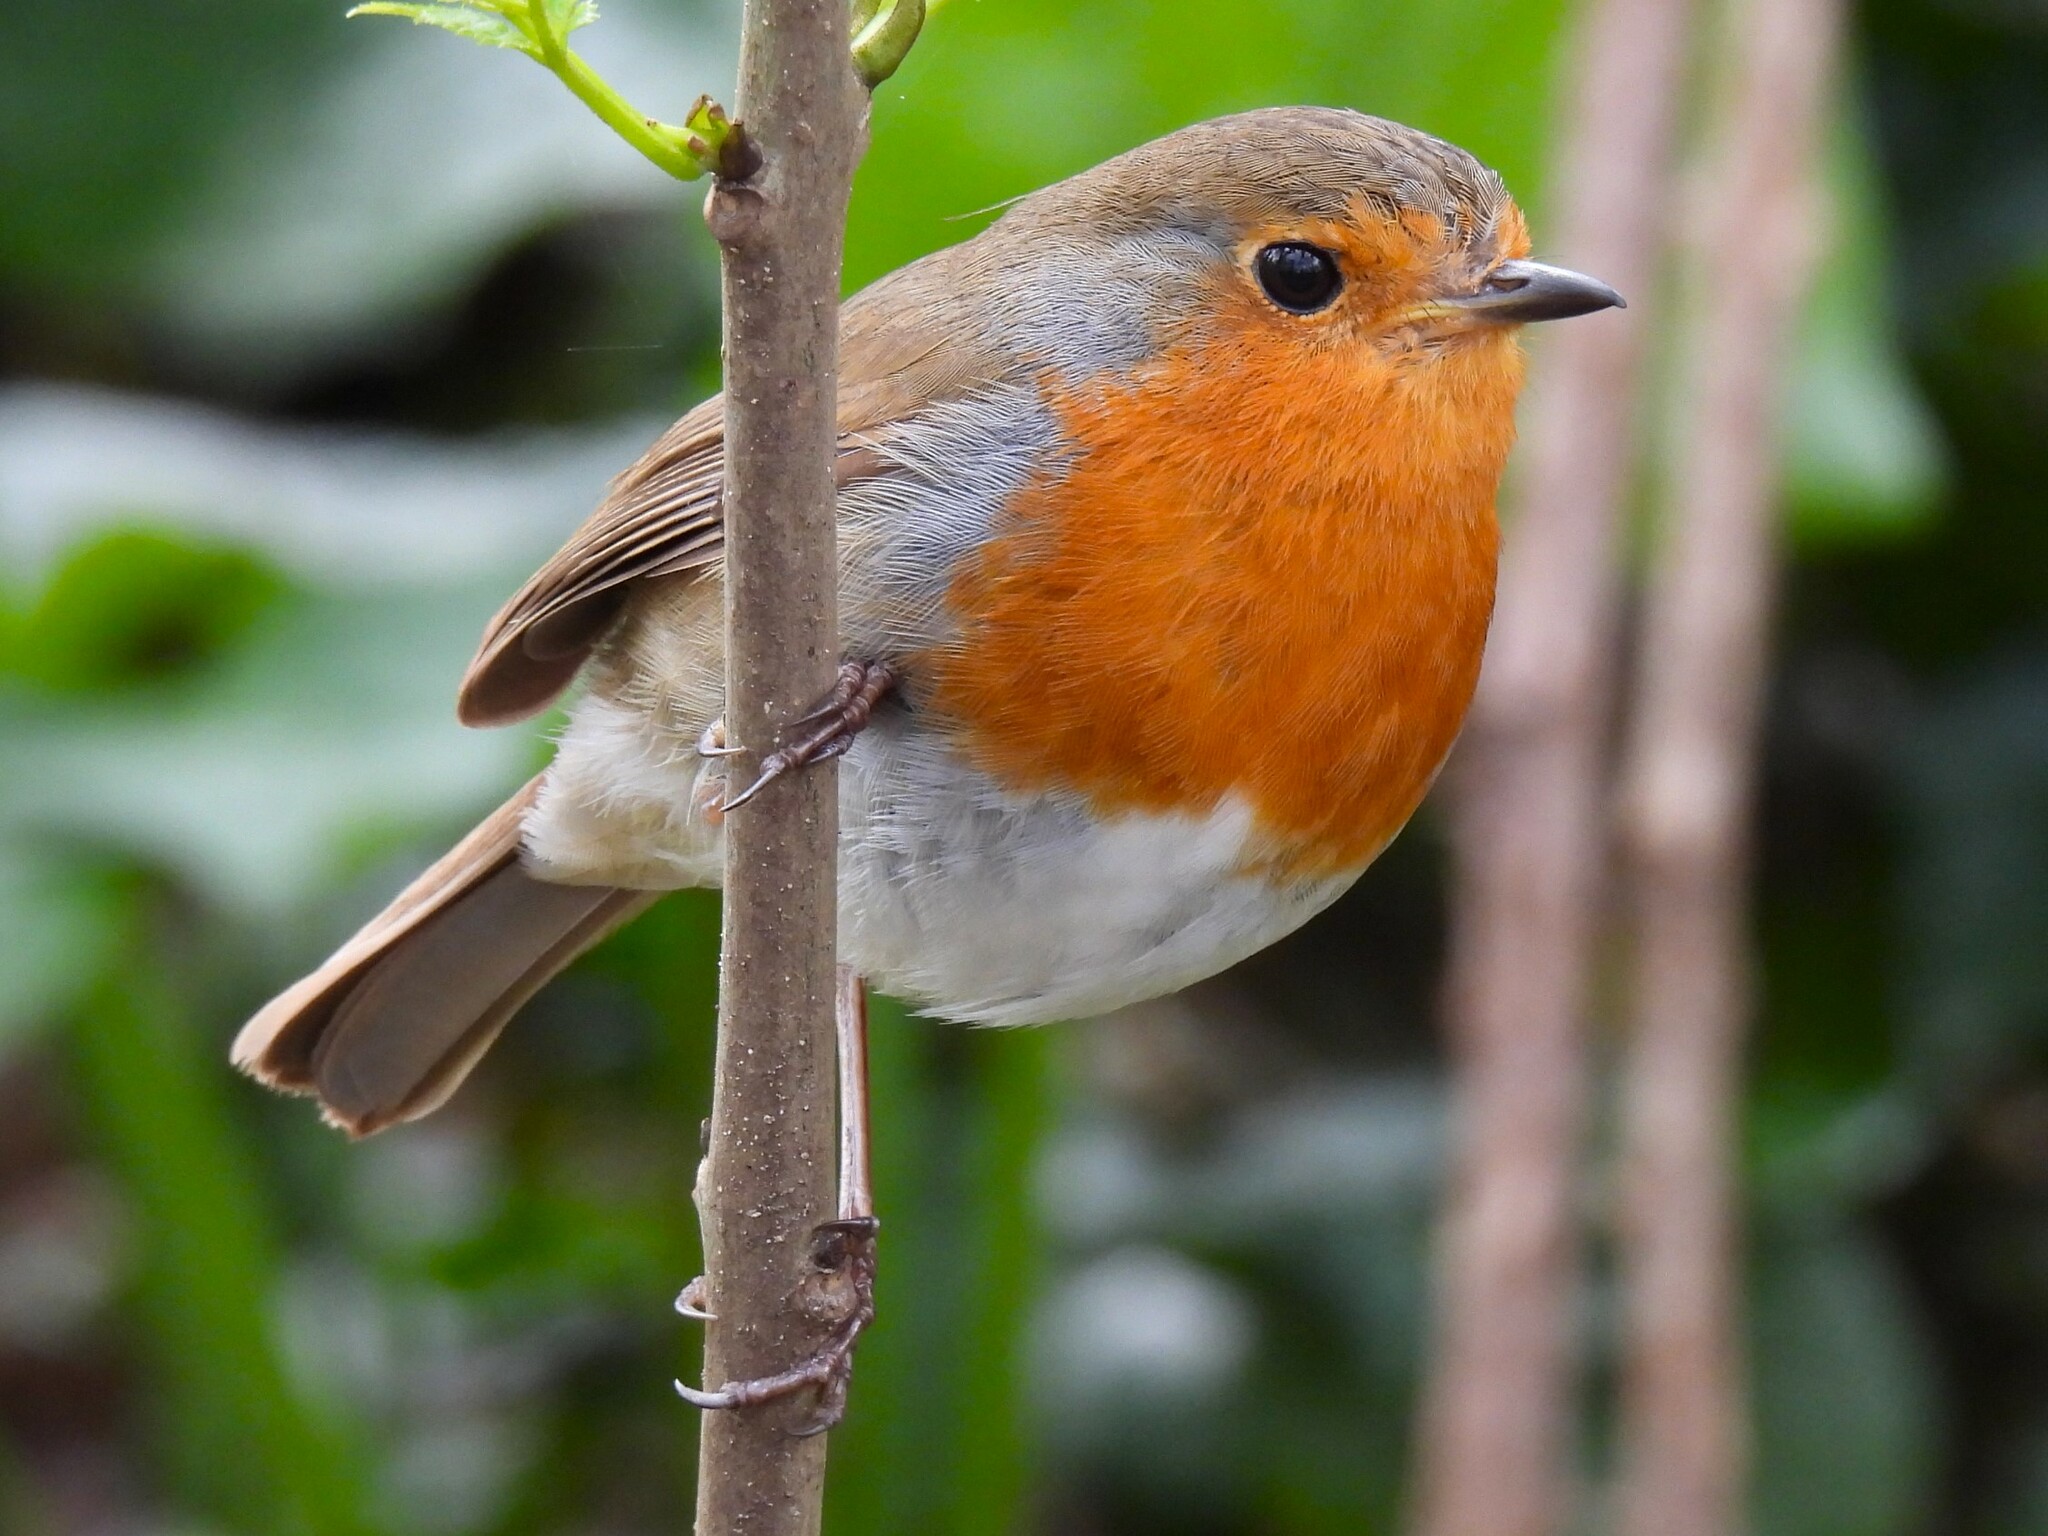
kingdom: Animalia
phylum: Chordata
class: Aves
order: Passeriformes
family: Muscicapidae
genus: Erithacus
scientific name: Erithacus rubecula
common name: European robin
